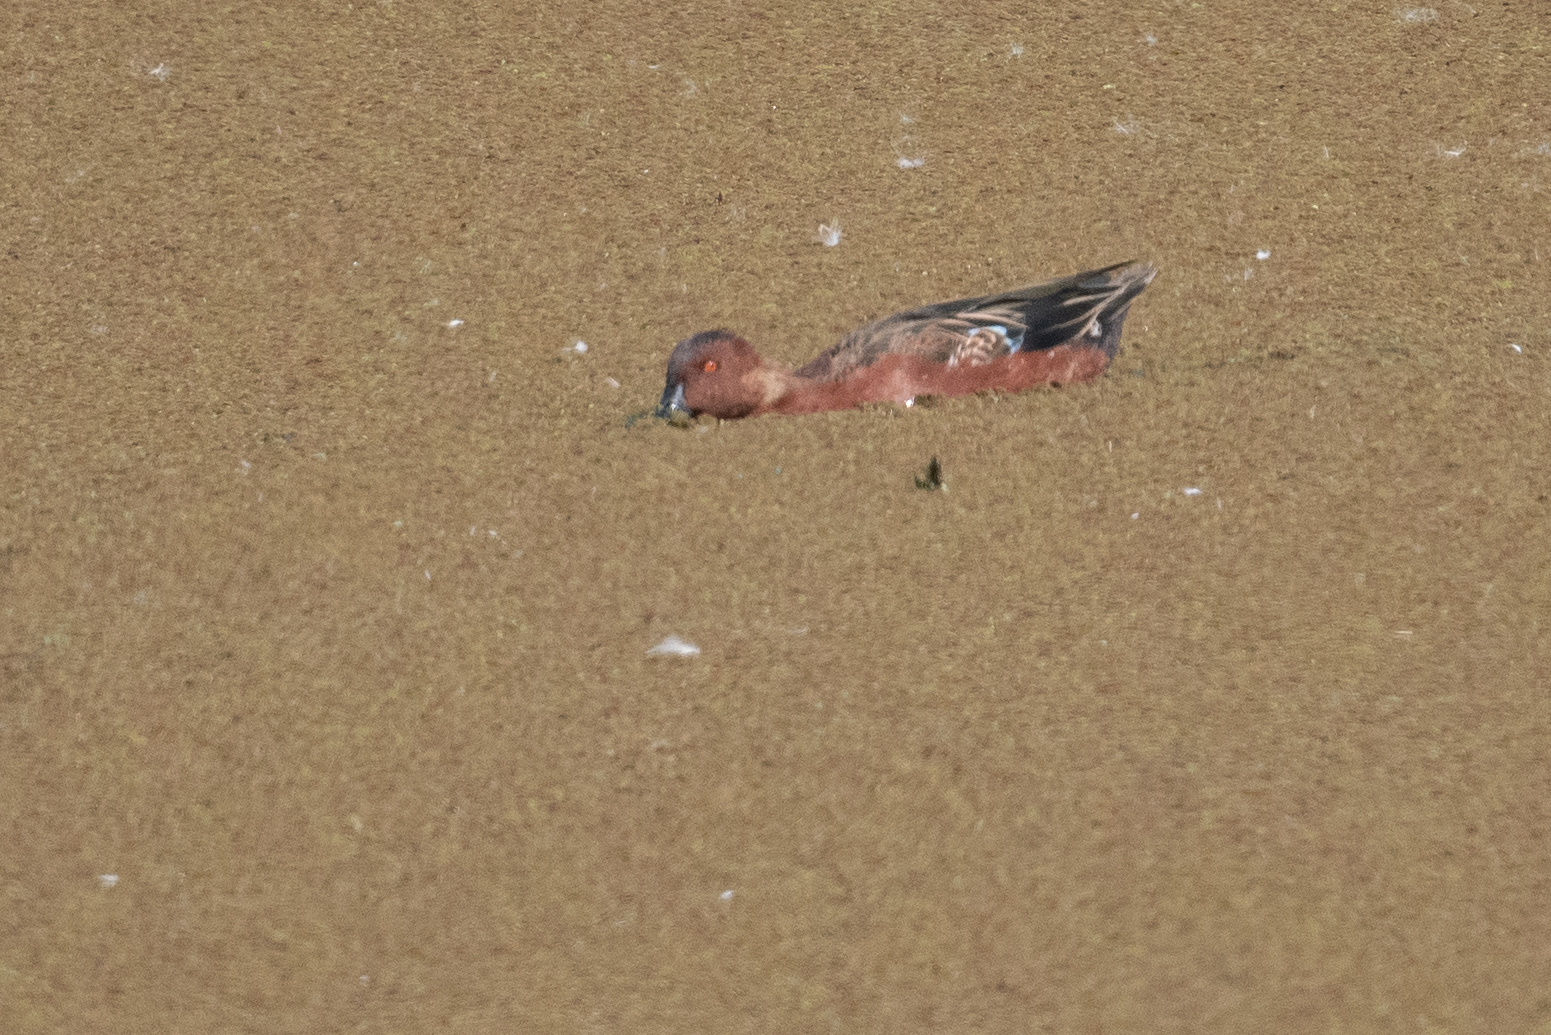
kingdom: Animalia
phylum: Chordata
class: Aves
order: Anseriformes
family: Anatidae
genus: Spatula
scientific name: Spatula cyanoptera
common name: Cinnamon teal
